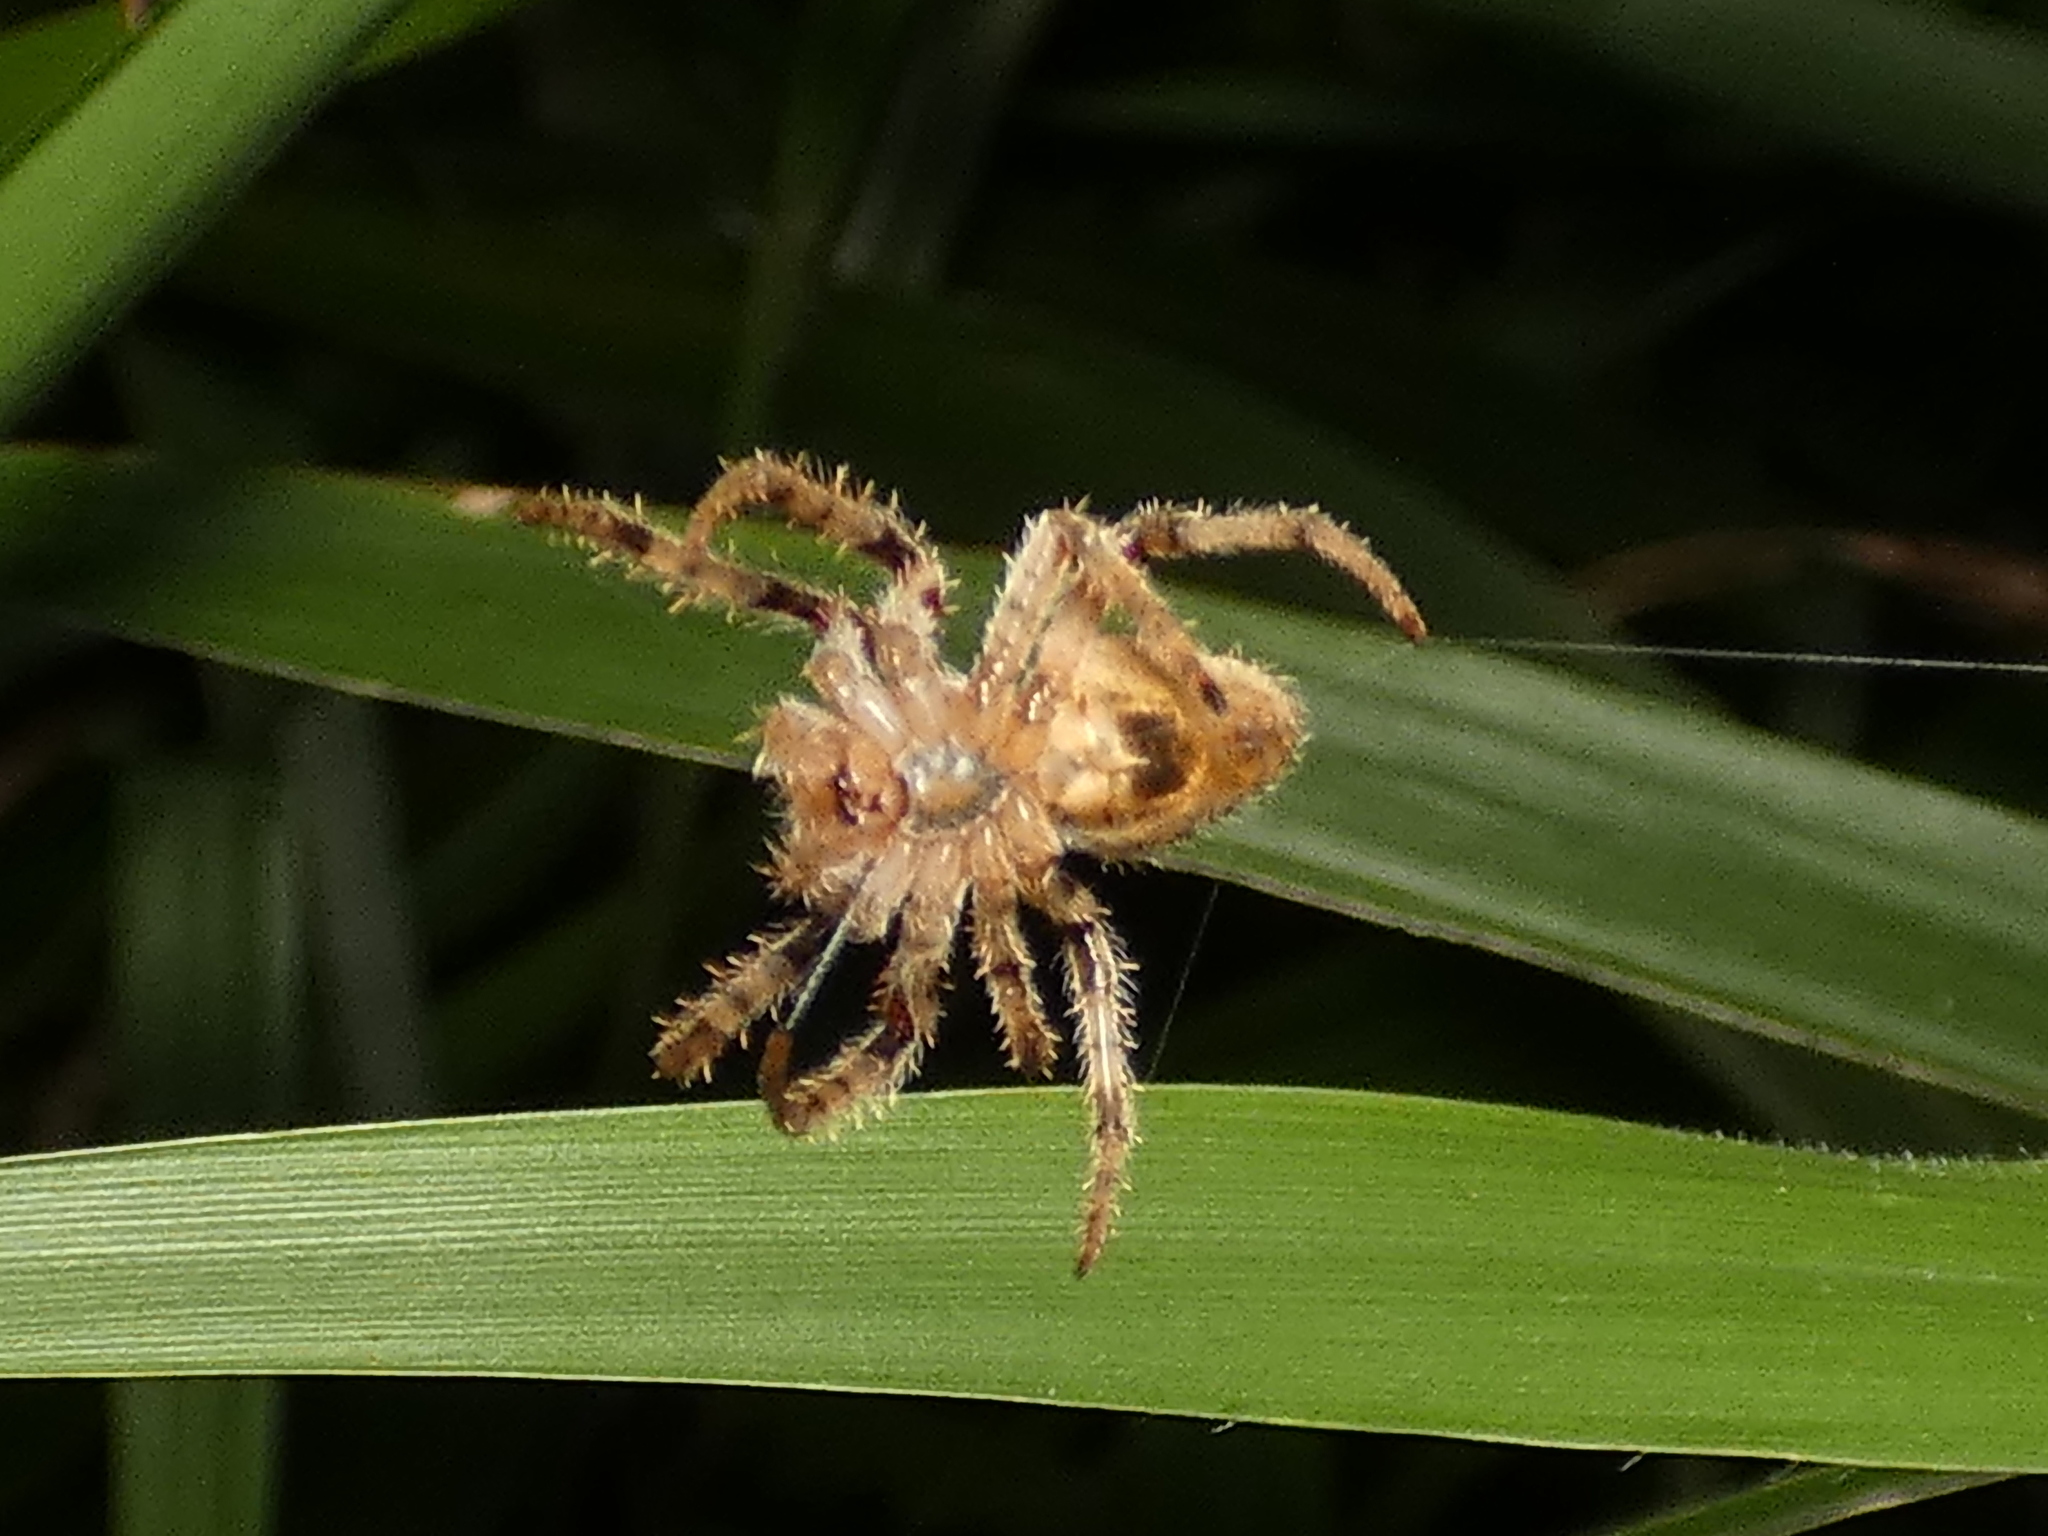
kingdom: Animalia
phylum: Arthropoda
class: Arachnida
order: Araneae
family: Araneidae
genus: Eriophora
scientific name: Eriophora edax
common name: Orb weavers
